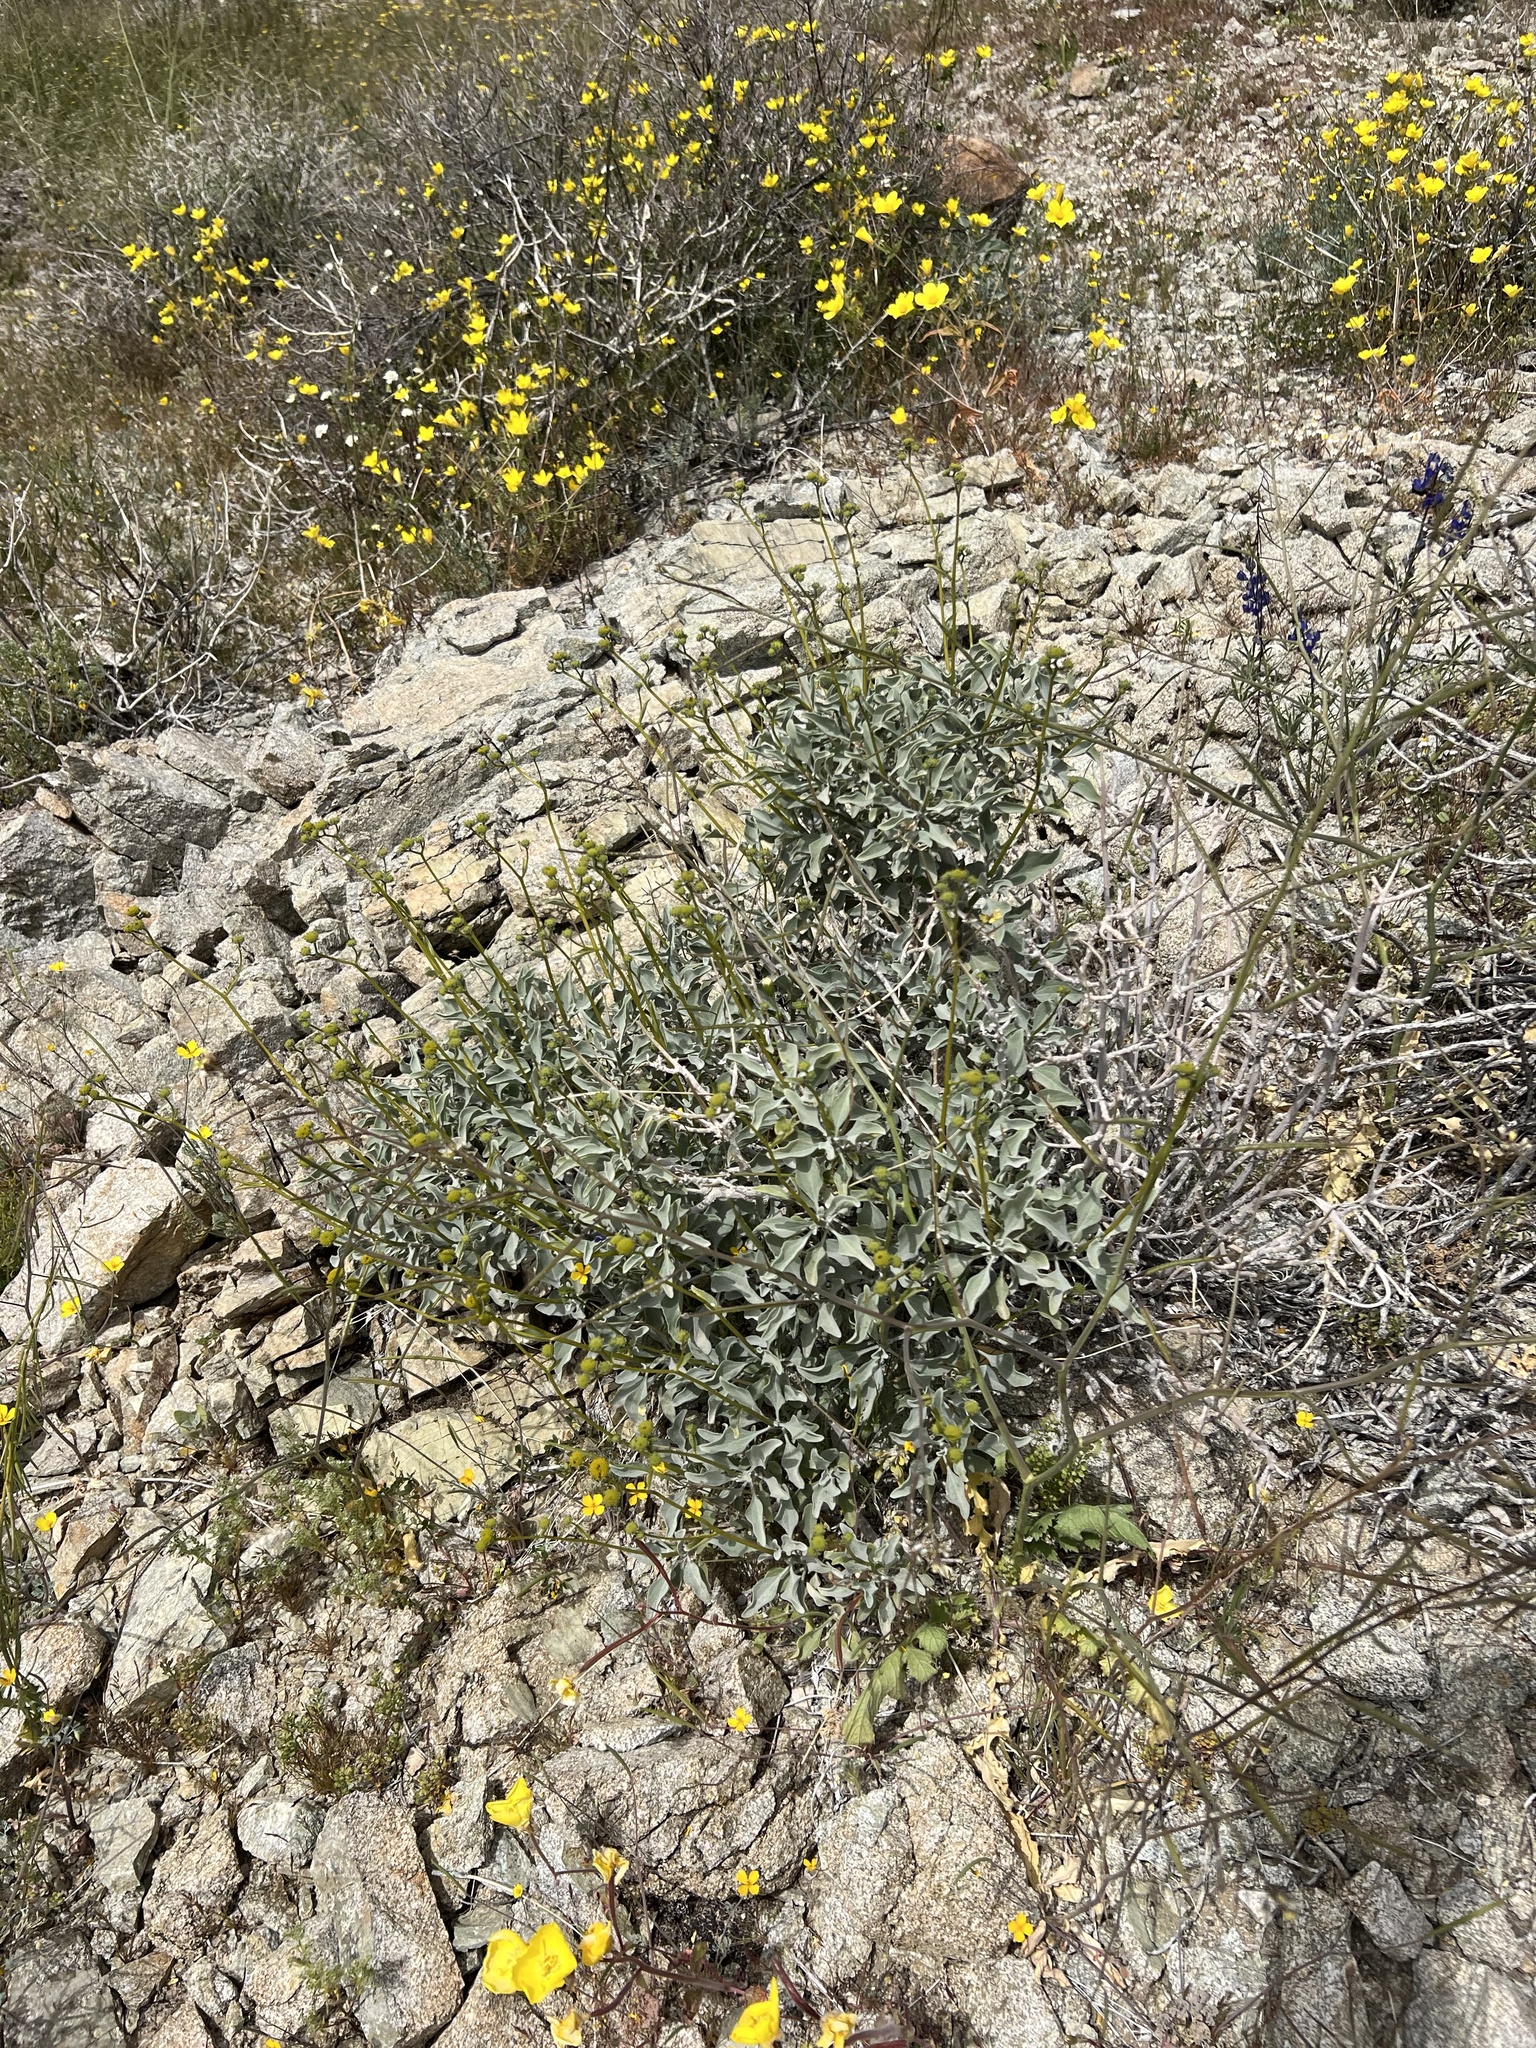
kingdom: Plantae
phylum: Tracheophyta
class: Magnoliopsida
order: Asterales
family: Asteraceae
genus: Encelia
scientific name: Encelia farinosa
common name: Brittlebush
